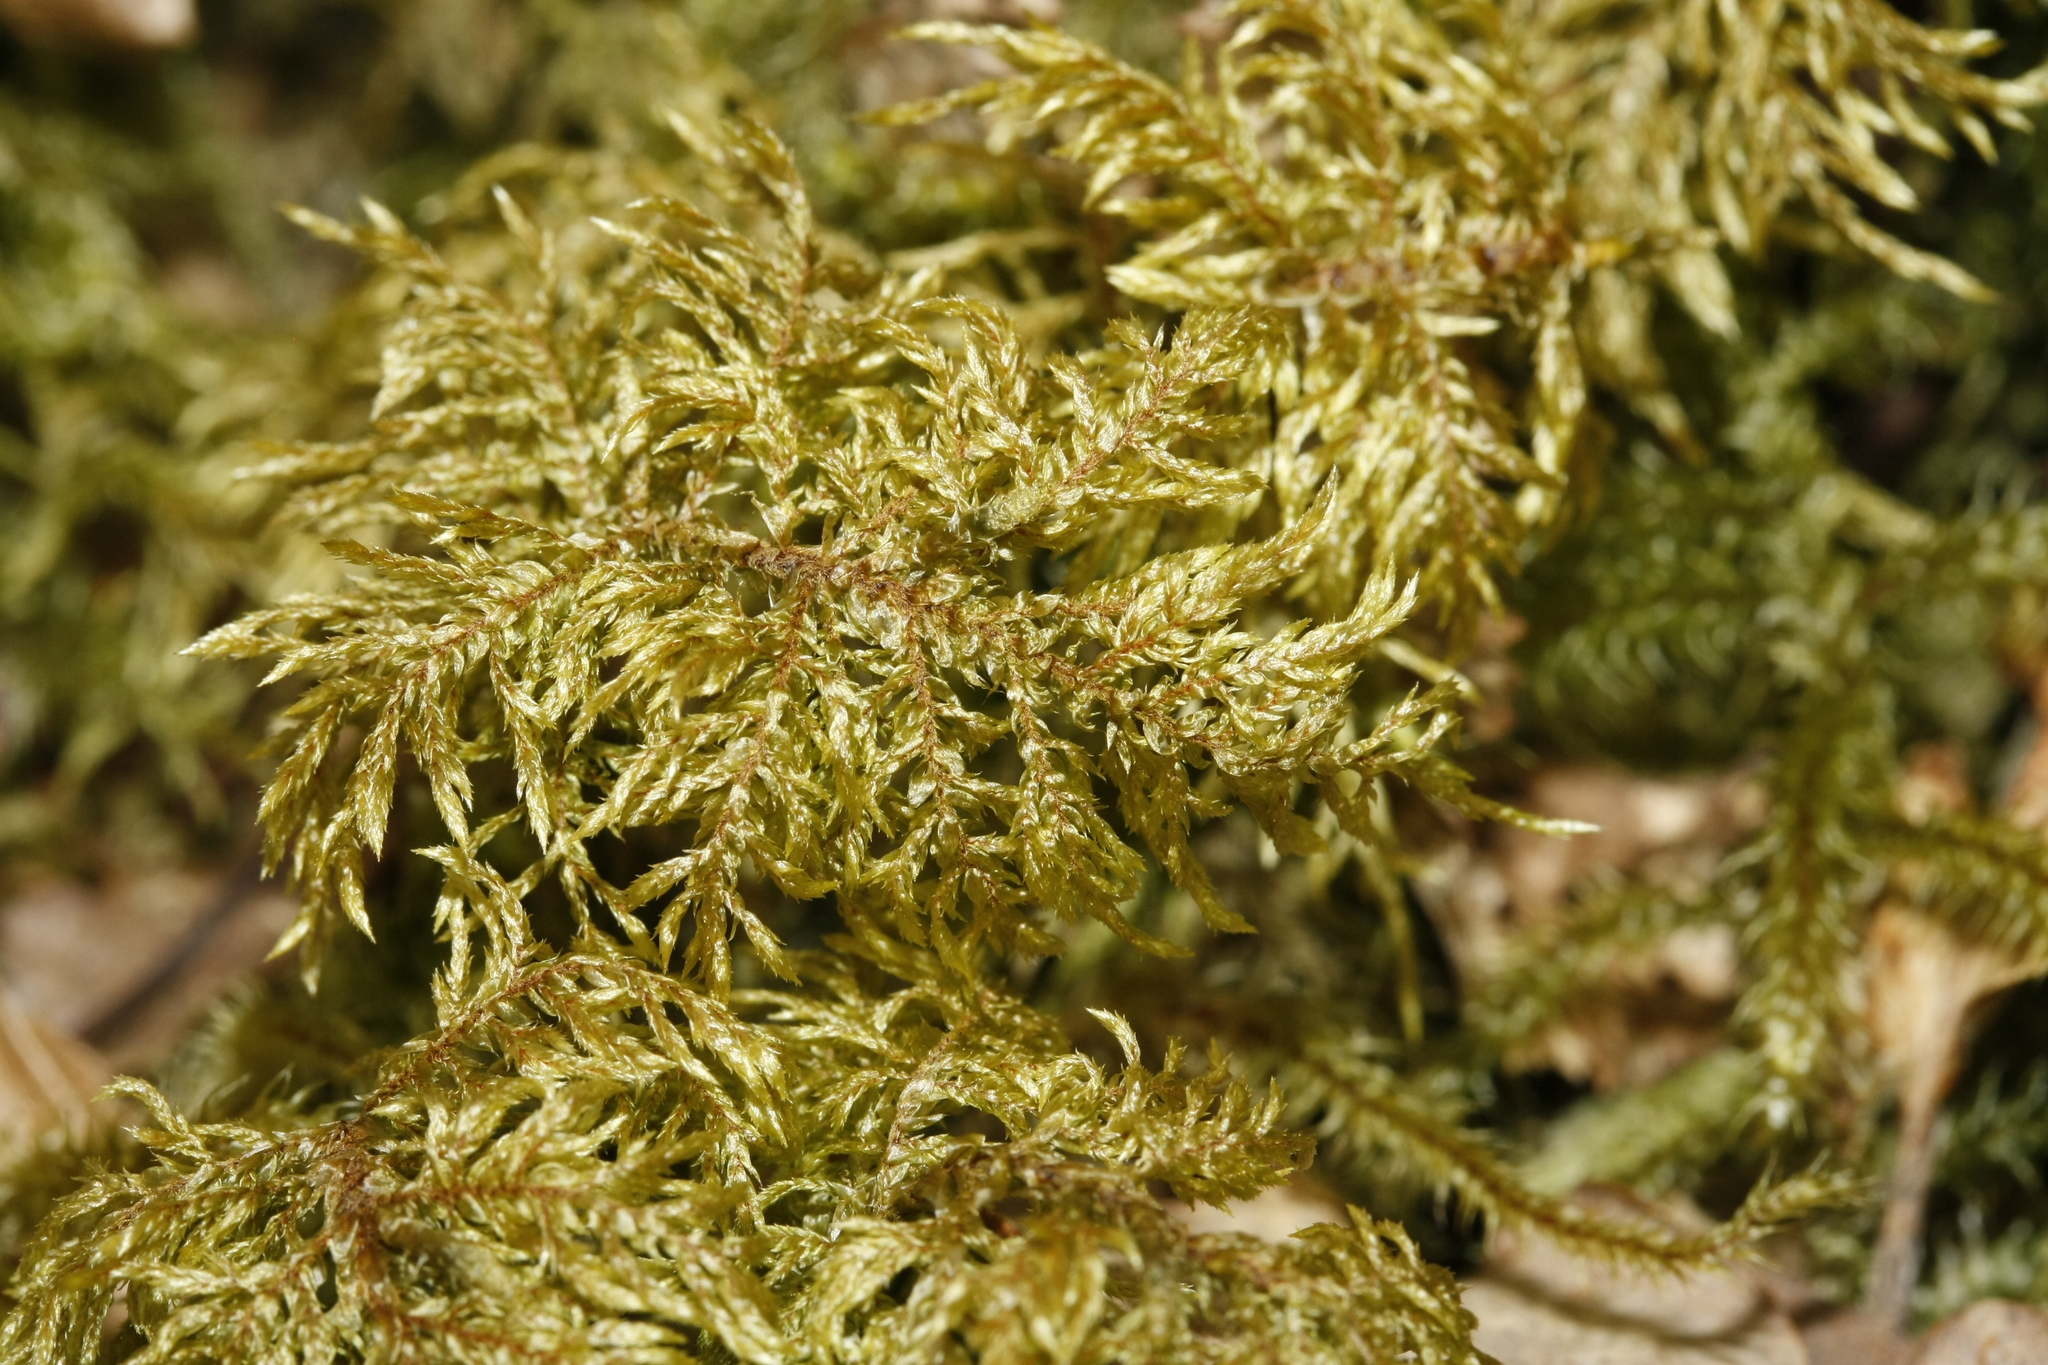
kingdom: Plantae
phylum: Bryophyta
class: Bryopsida
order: Hypnales
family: Hylocomiaceae
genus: Hylocomium
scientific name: Hylocomium splendens
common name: Stairstep moss
